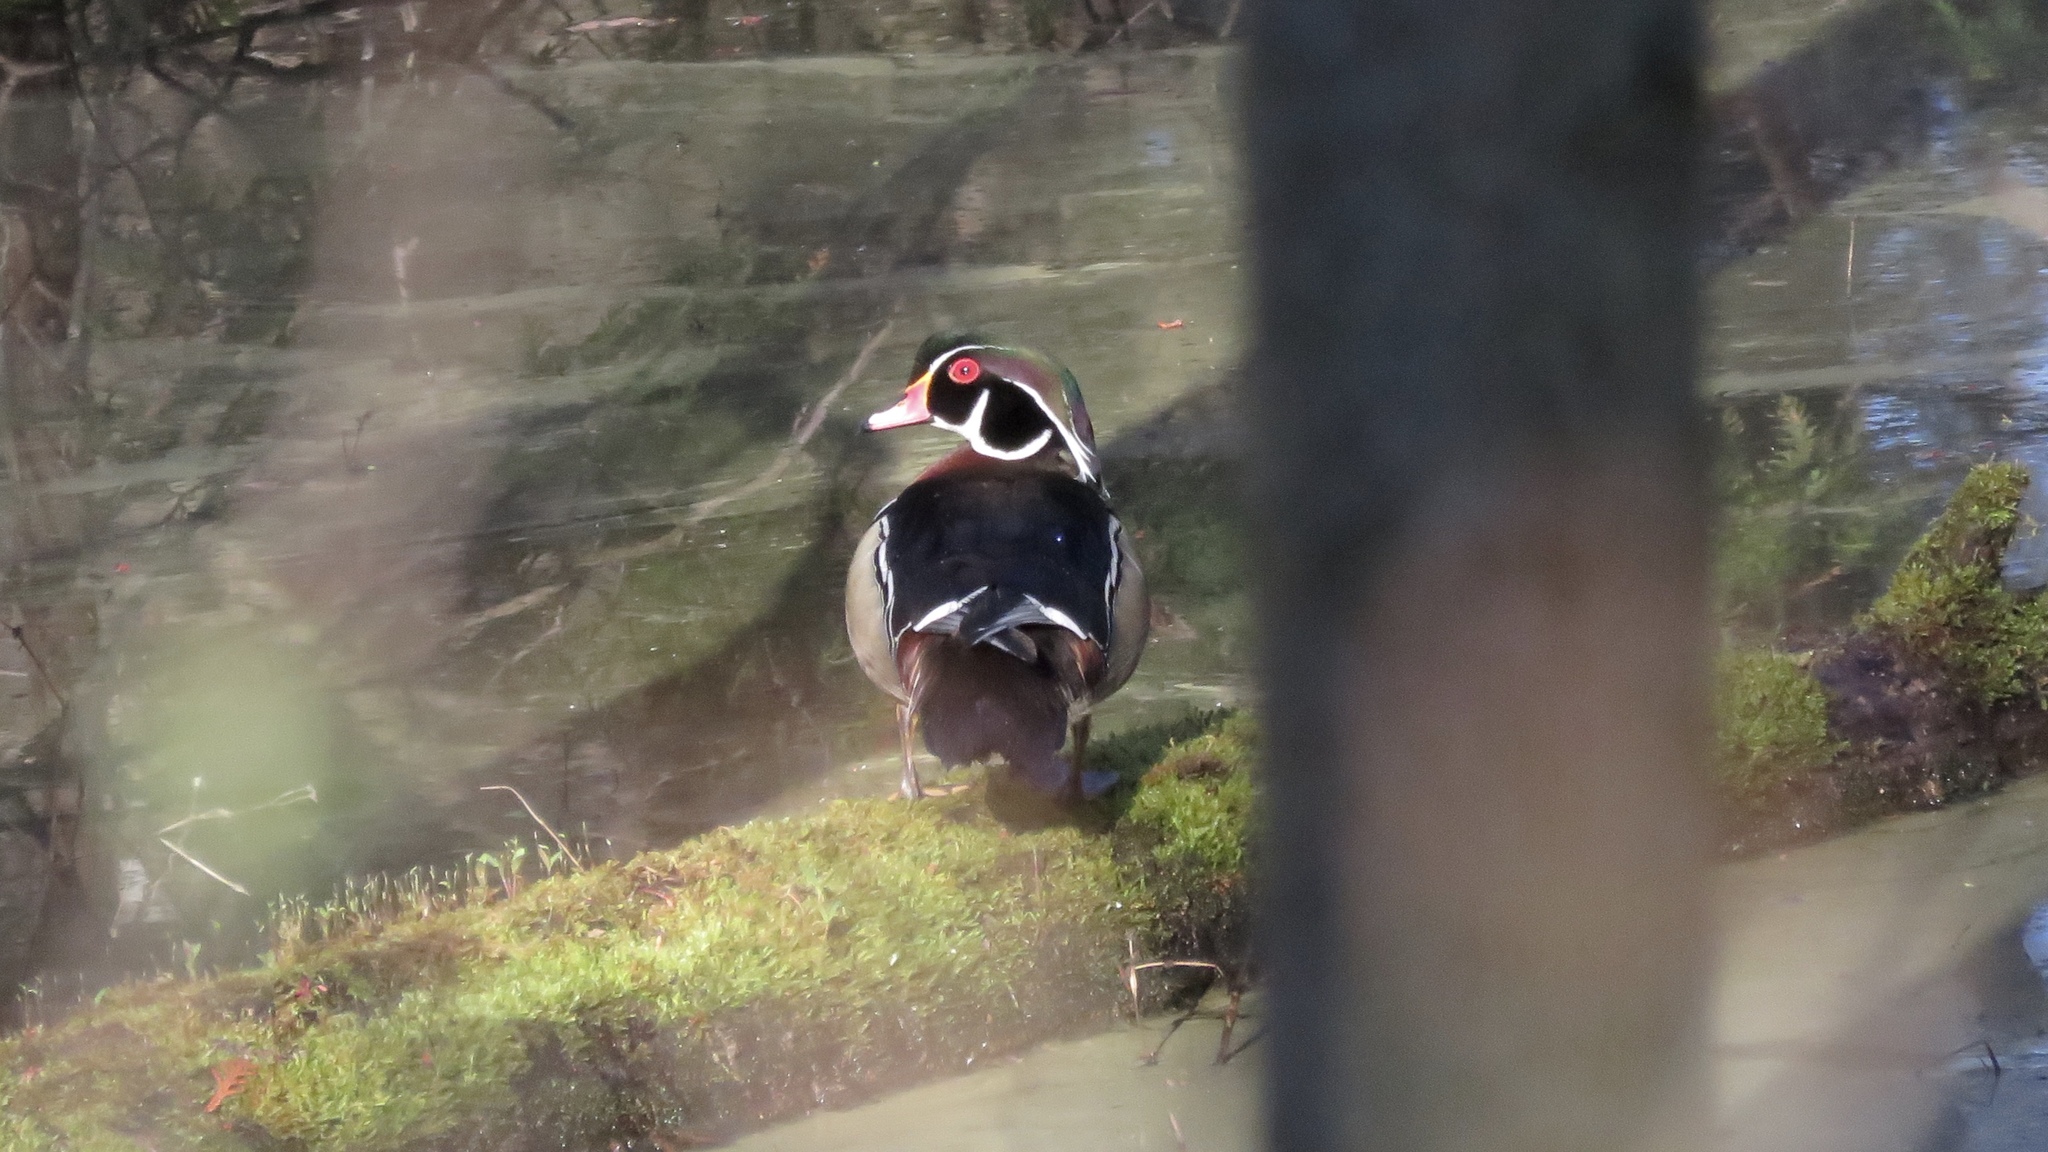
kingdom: Animalia
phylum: Chordata
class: Aves
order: Anseriformes
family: Anatidae
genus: Aix
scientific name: Aix sponsa
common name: Wood duck
